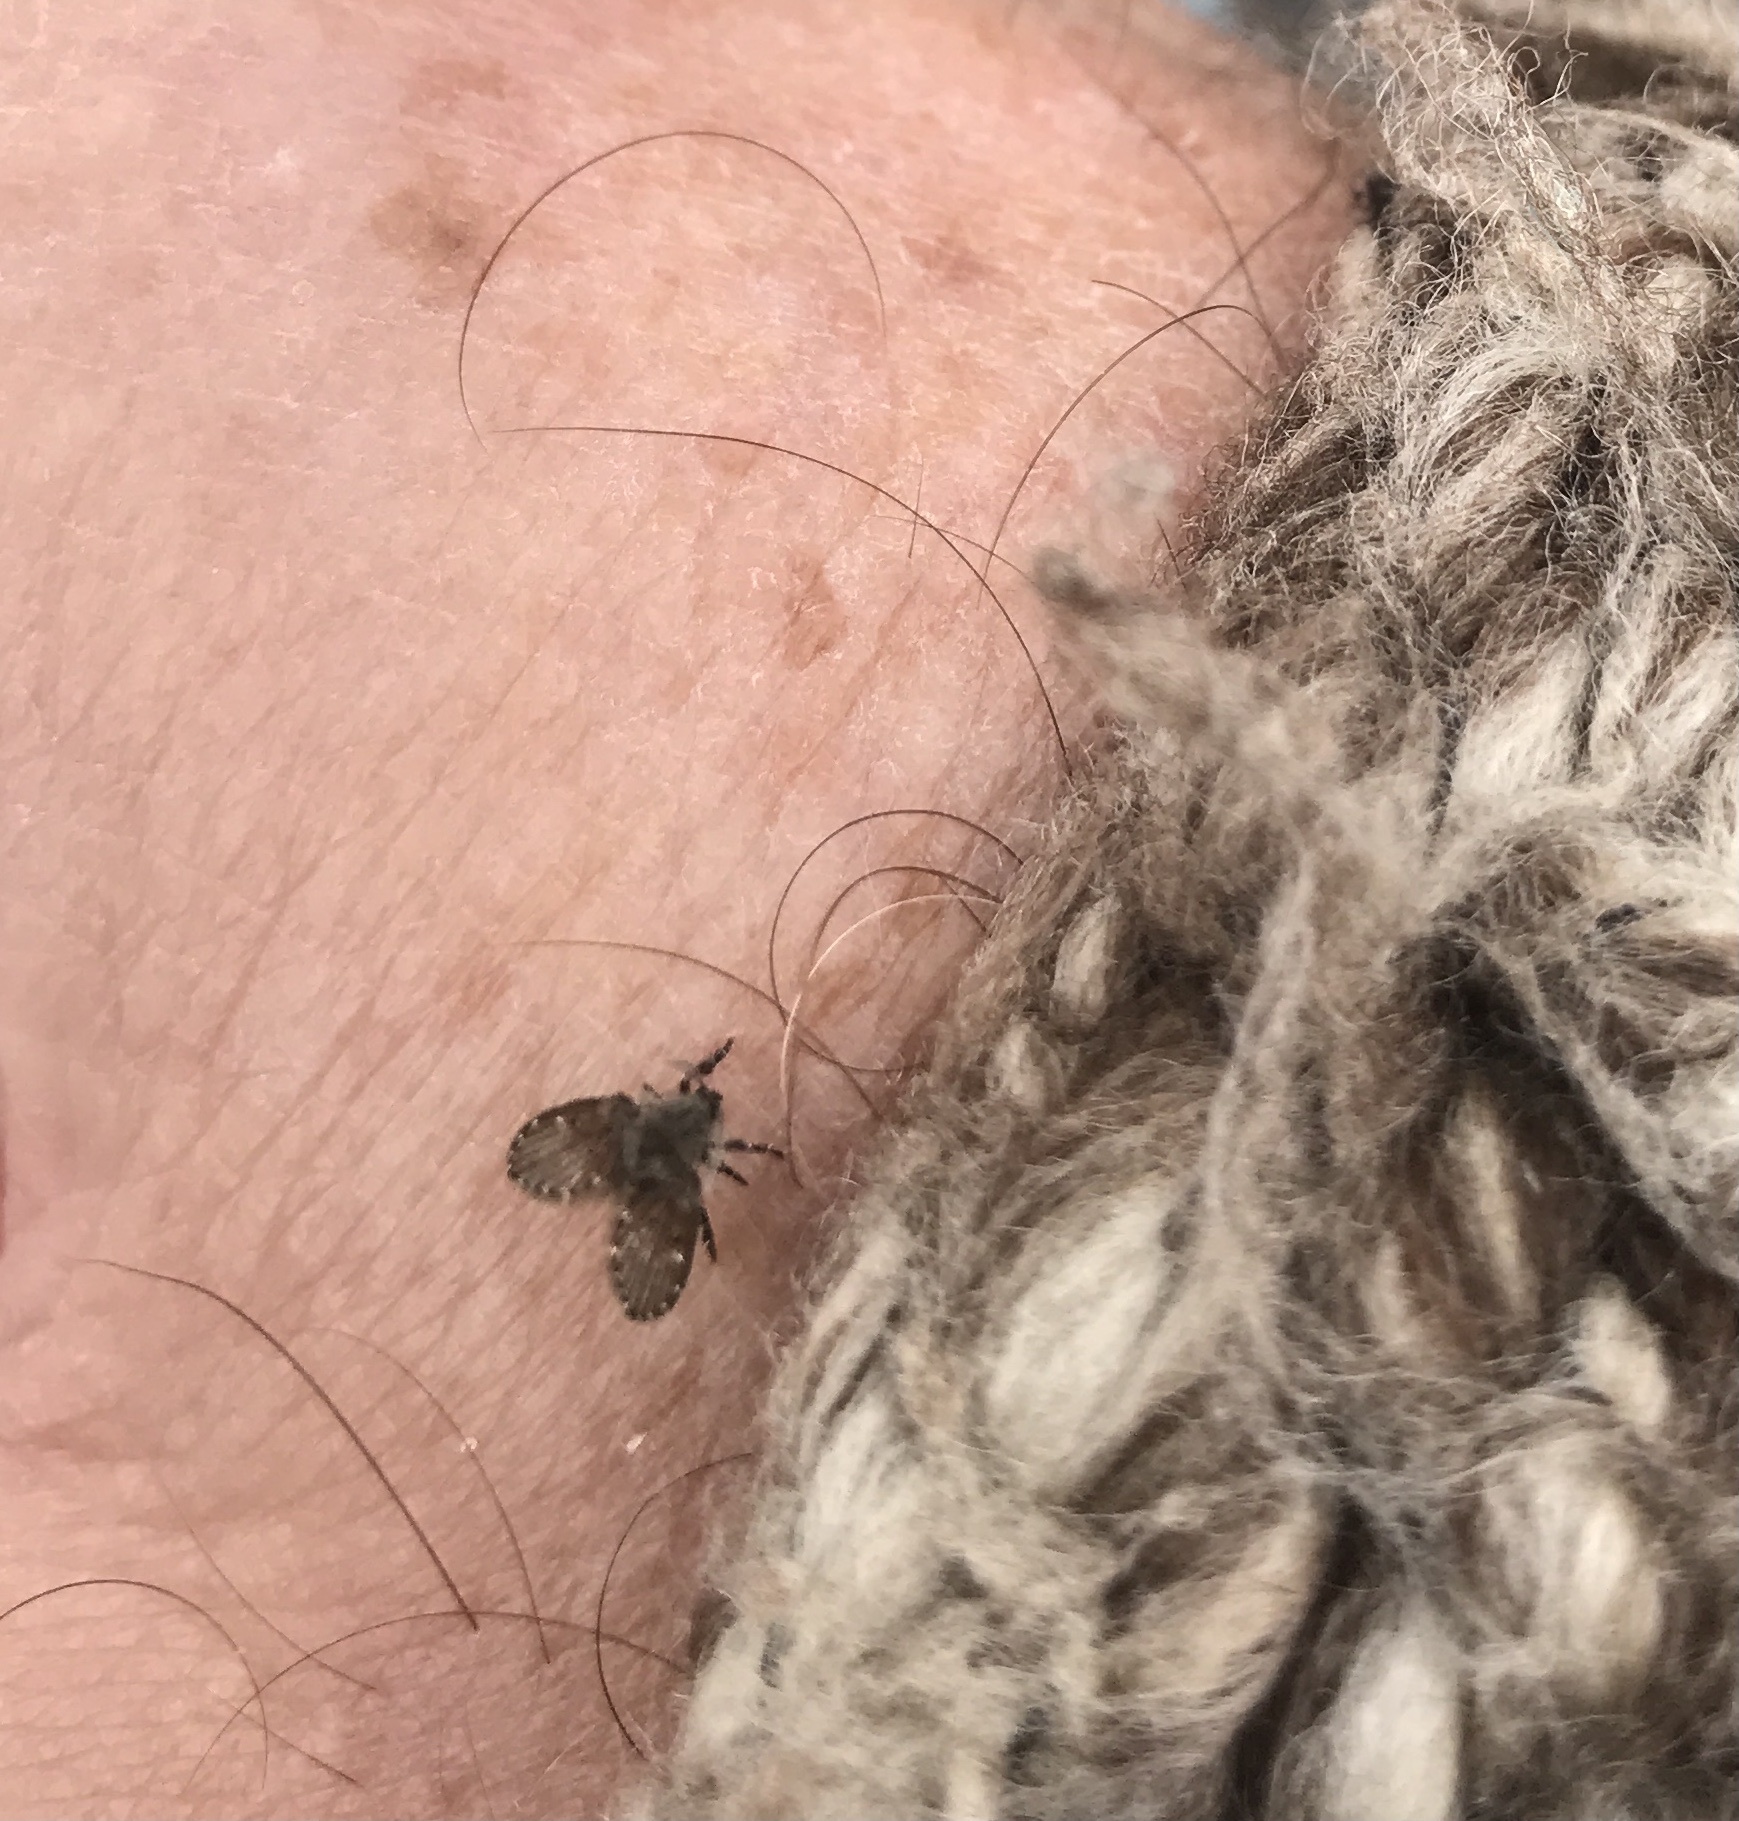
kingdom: Animalia
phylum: Arthropoda
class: Insecta
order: Diptera
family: Psychodidae
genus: Clogmia
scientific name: Clogmia albipunctatus
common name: White-spotted moth fly
